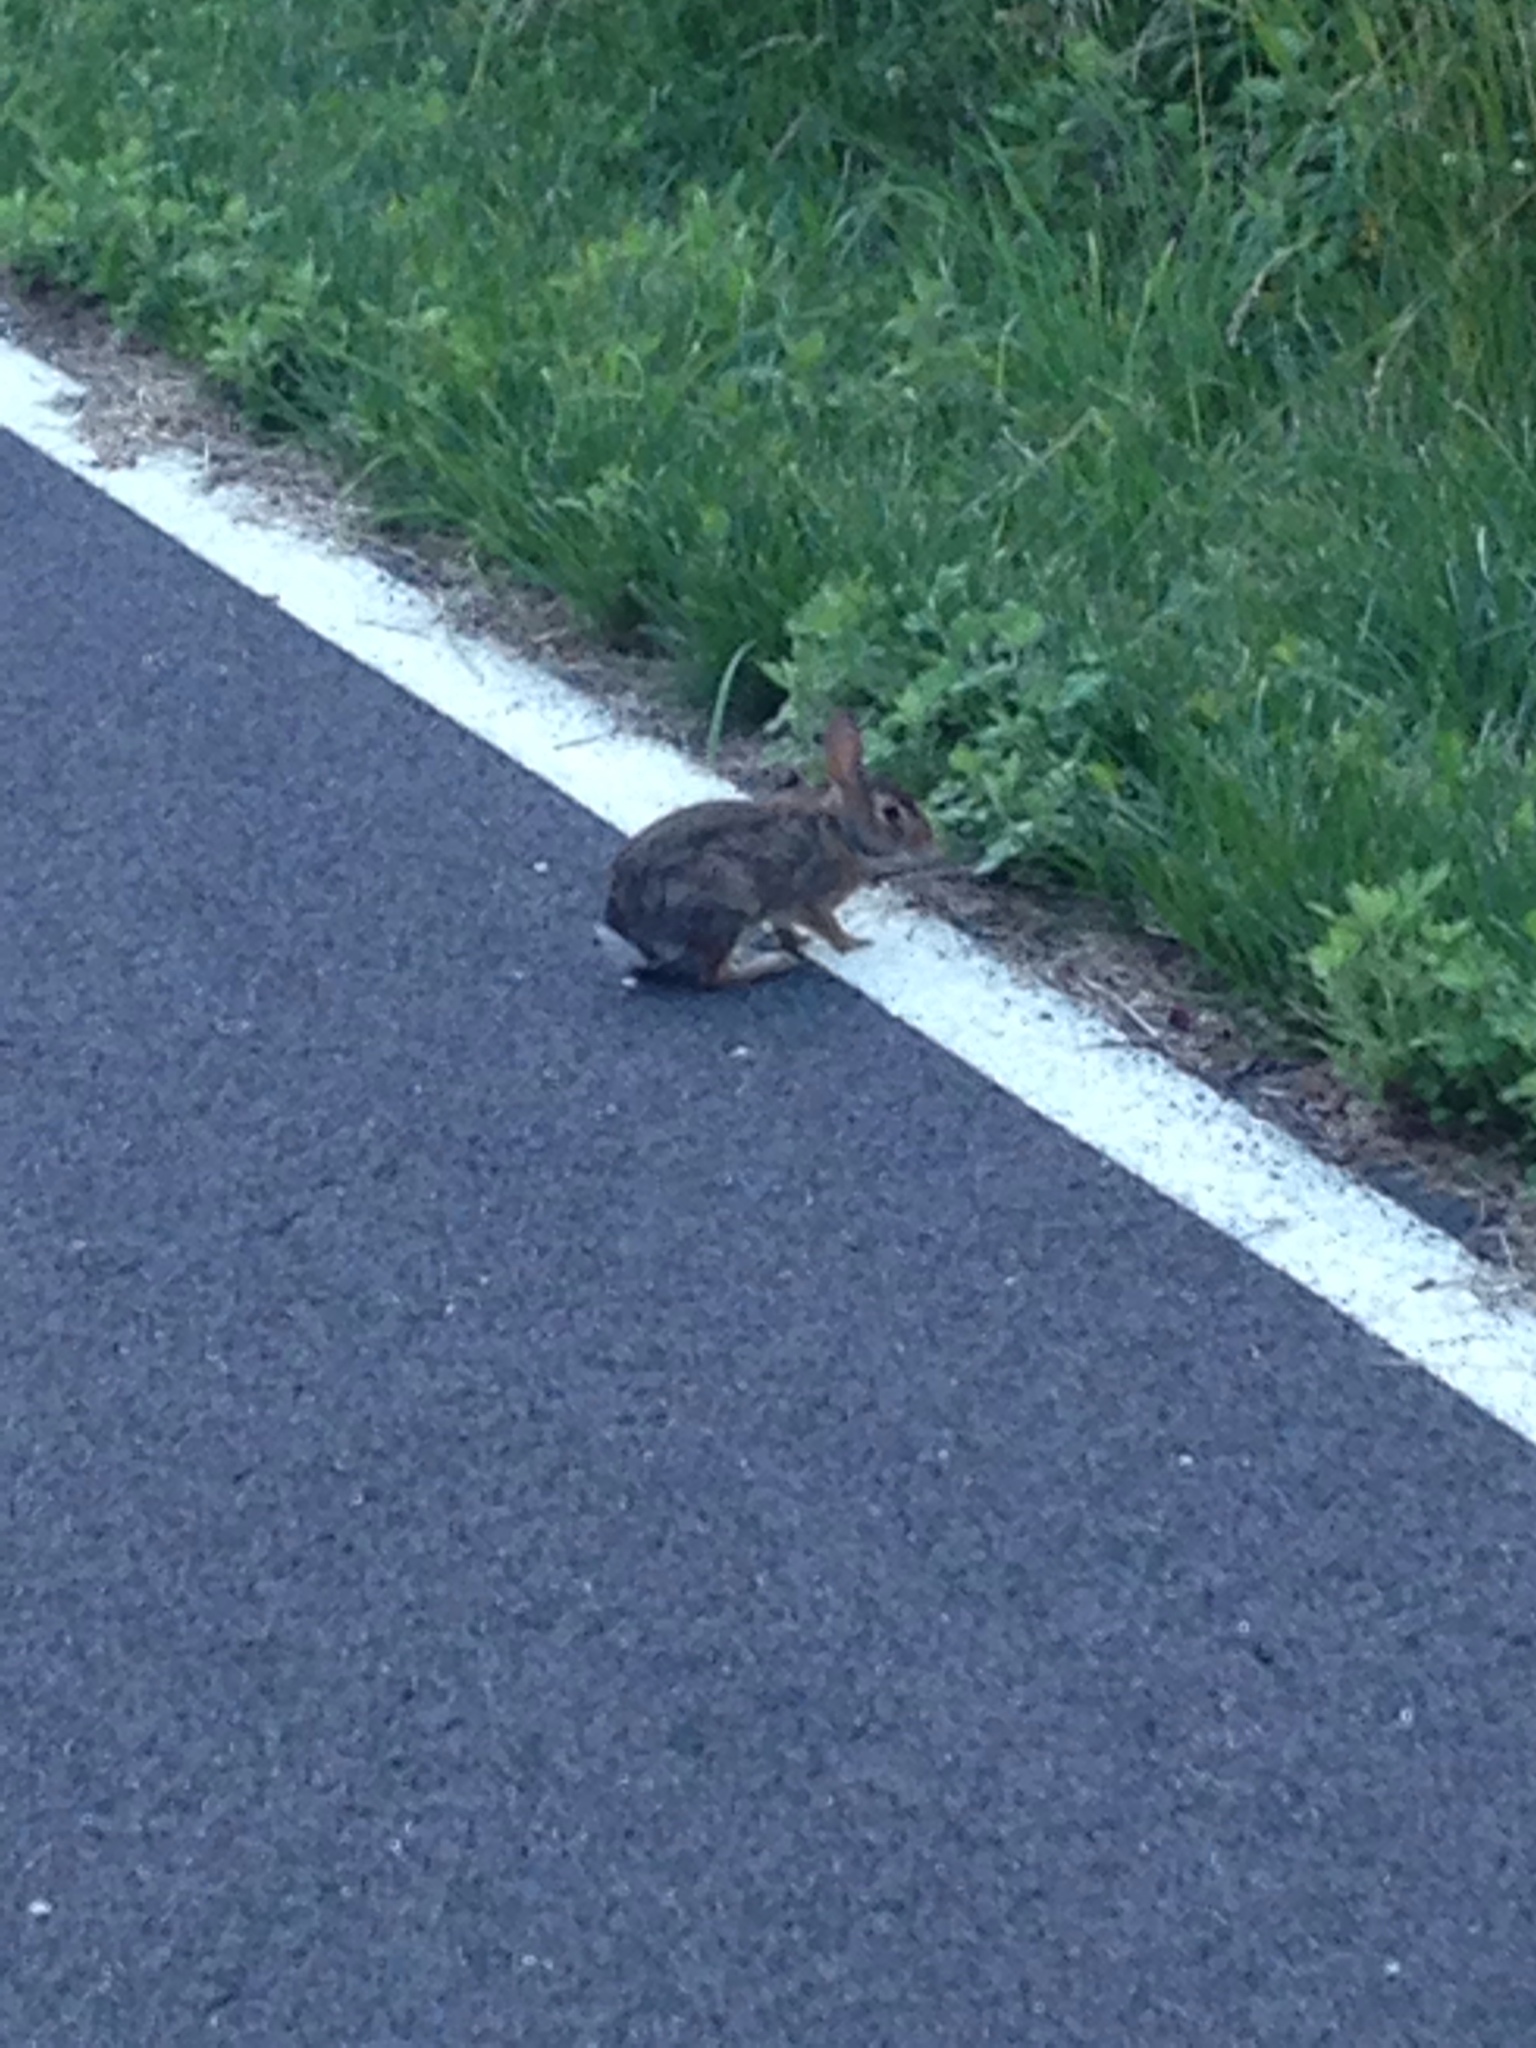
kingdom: Animalia
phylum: Chordata
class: Mammalia
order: Lagomorpha
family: Leporidae
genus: Sylvilagus
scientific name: Sylvilagus floridanus
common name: Eastern cottontail
